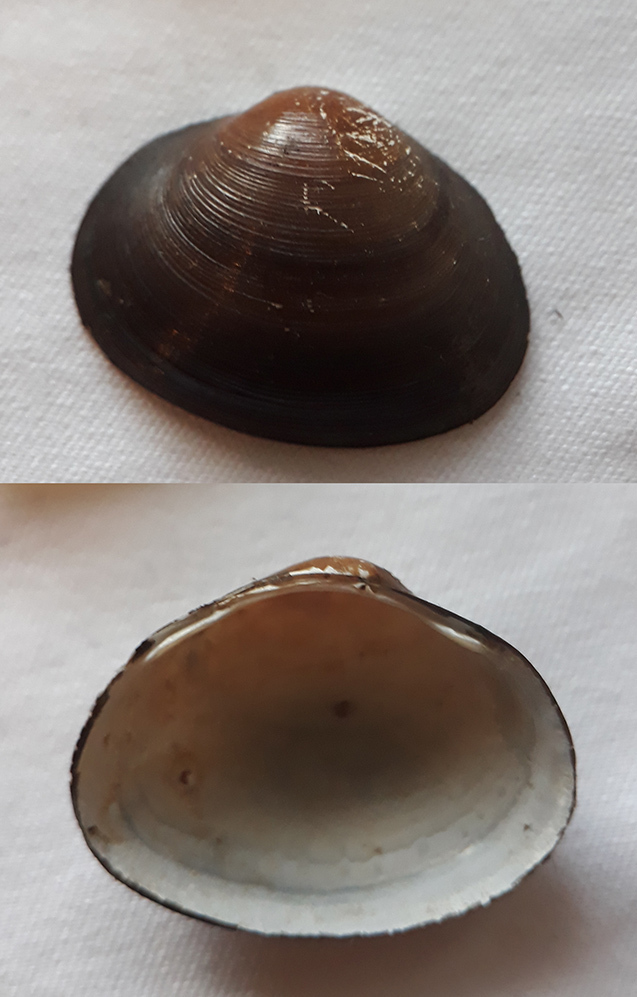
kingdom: Animalia
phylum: Mollusca
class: Bivalvia
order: Sphaeriida
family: Sphaeriidae
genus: Sphaerium
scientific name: Sphaerium rivicola
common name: Nut orb mussel
